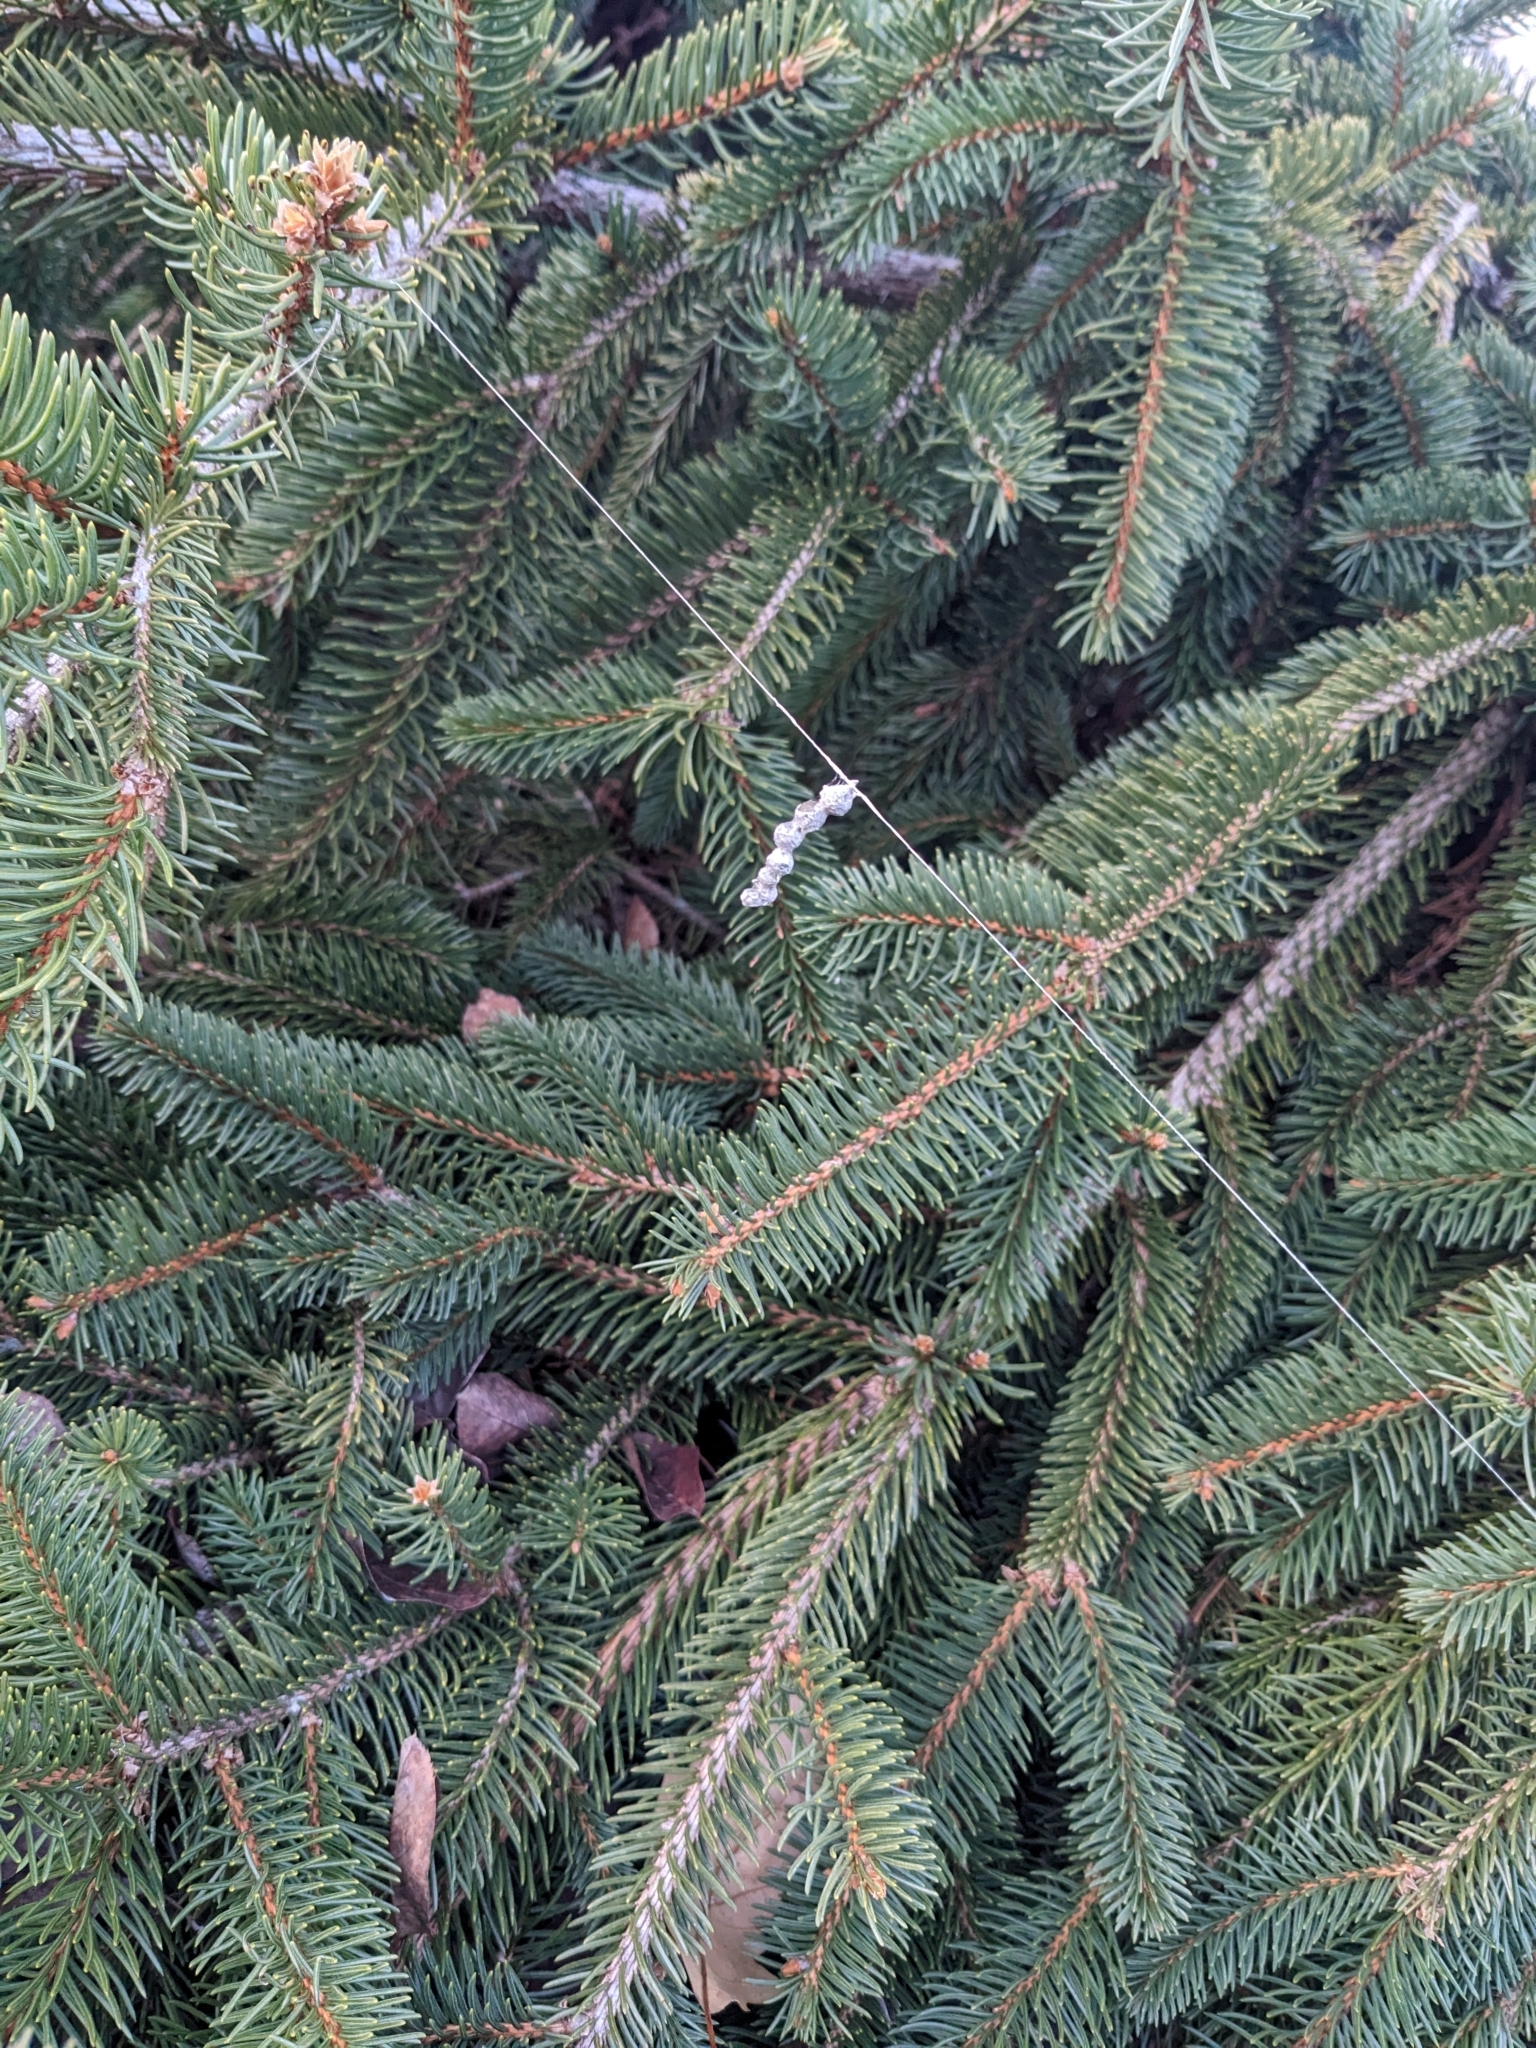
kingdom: Animalia
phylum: Arthropoda
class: Arachnida
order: Araneae
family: Araneidae
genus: Mecynogea
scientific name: Mecynogea lemniscata
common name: Orb weavers
